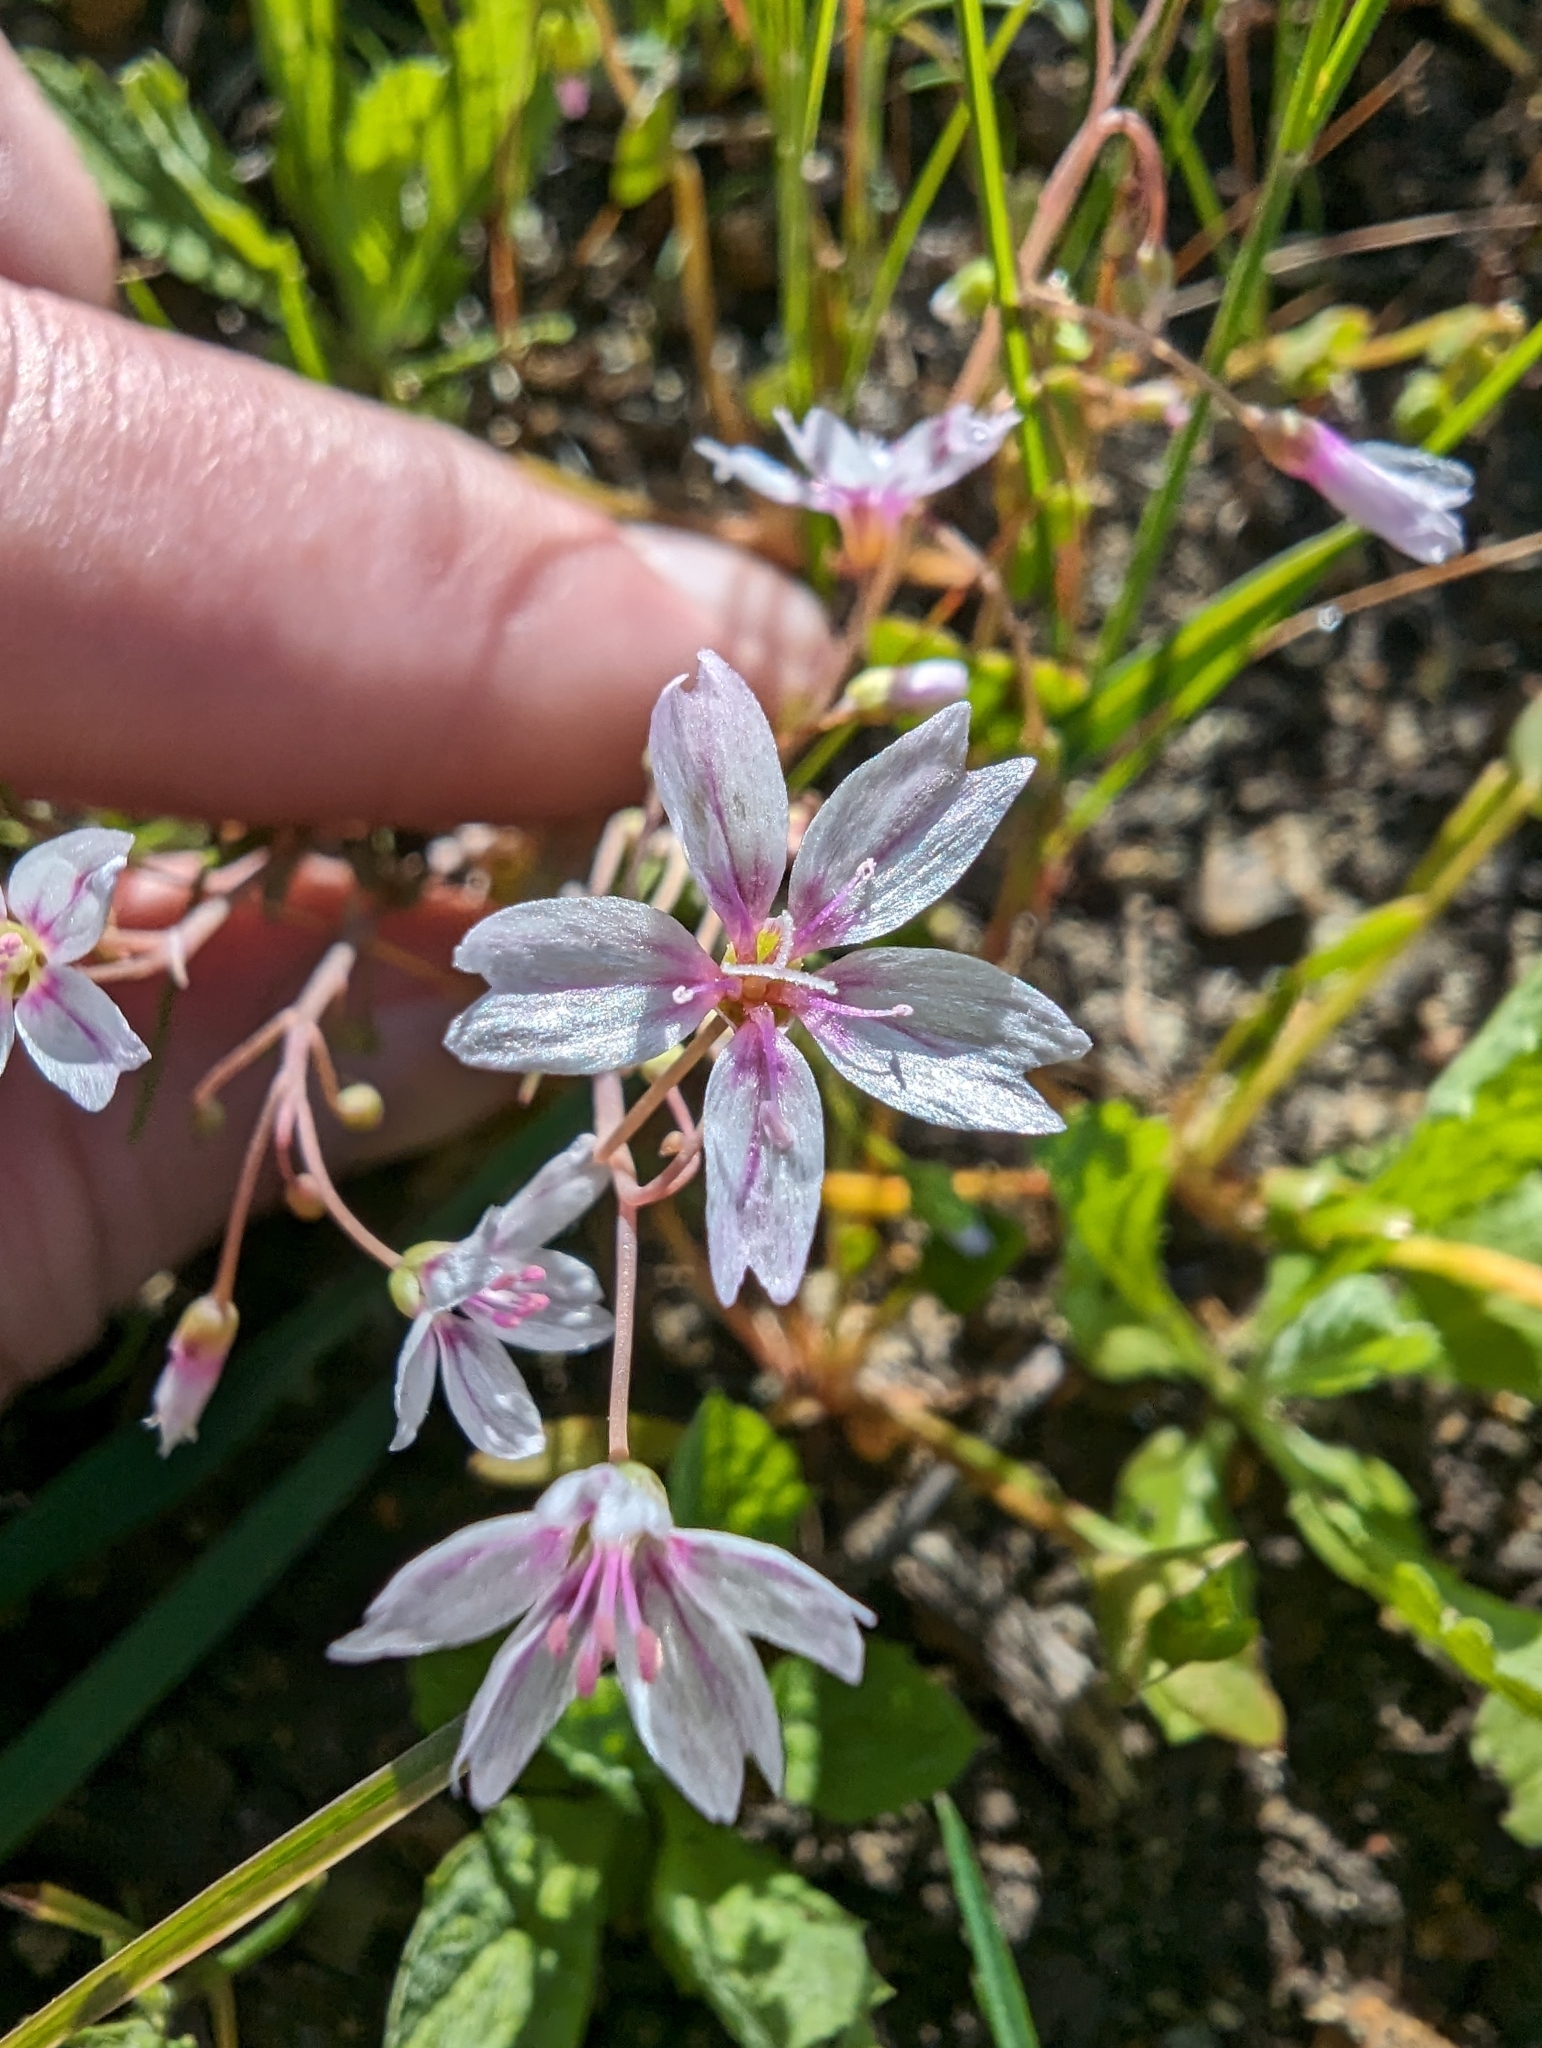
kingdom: Plantae
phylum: Tracheophyta
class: Magnoliopsida
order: Caryophyllales
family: Montiaceae
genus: Claytonia
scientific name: Claytonia gypsophiloides
